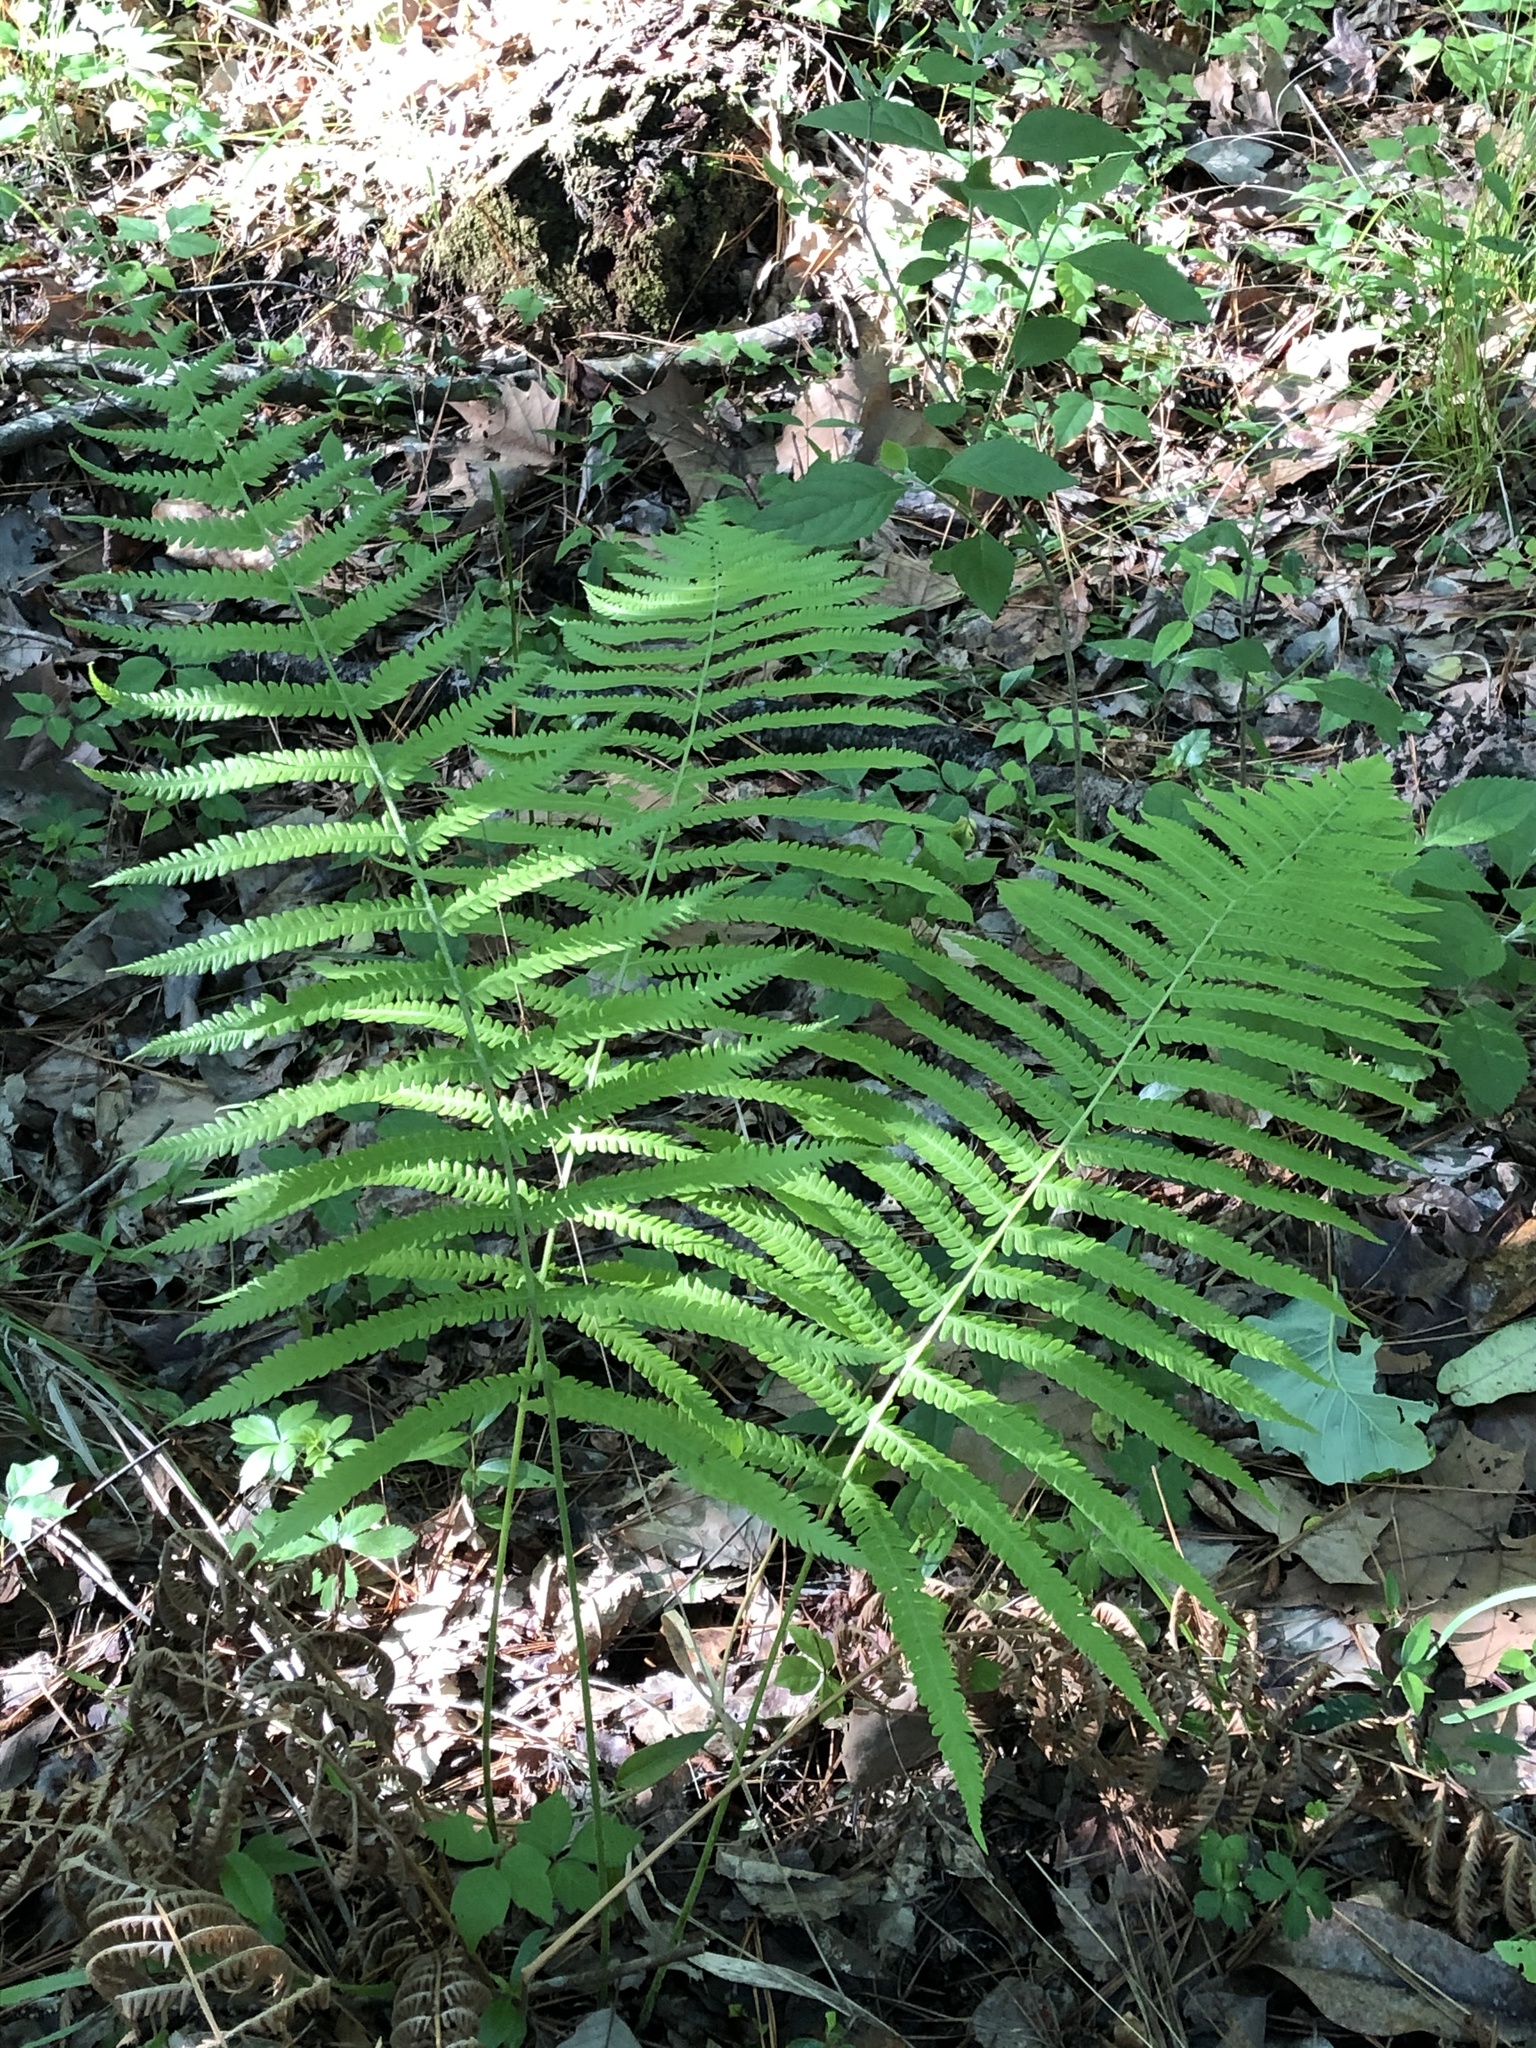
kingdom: Plantae
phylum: Tracheophyta
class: Polypodiopsida
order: Osmundales
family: Osmundaceae
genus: Osmundastrum
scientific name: Osmundastrum cinnamomeum
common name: Cinnamon fern
